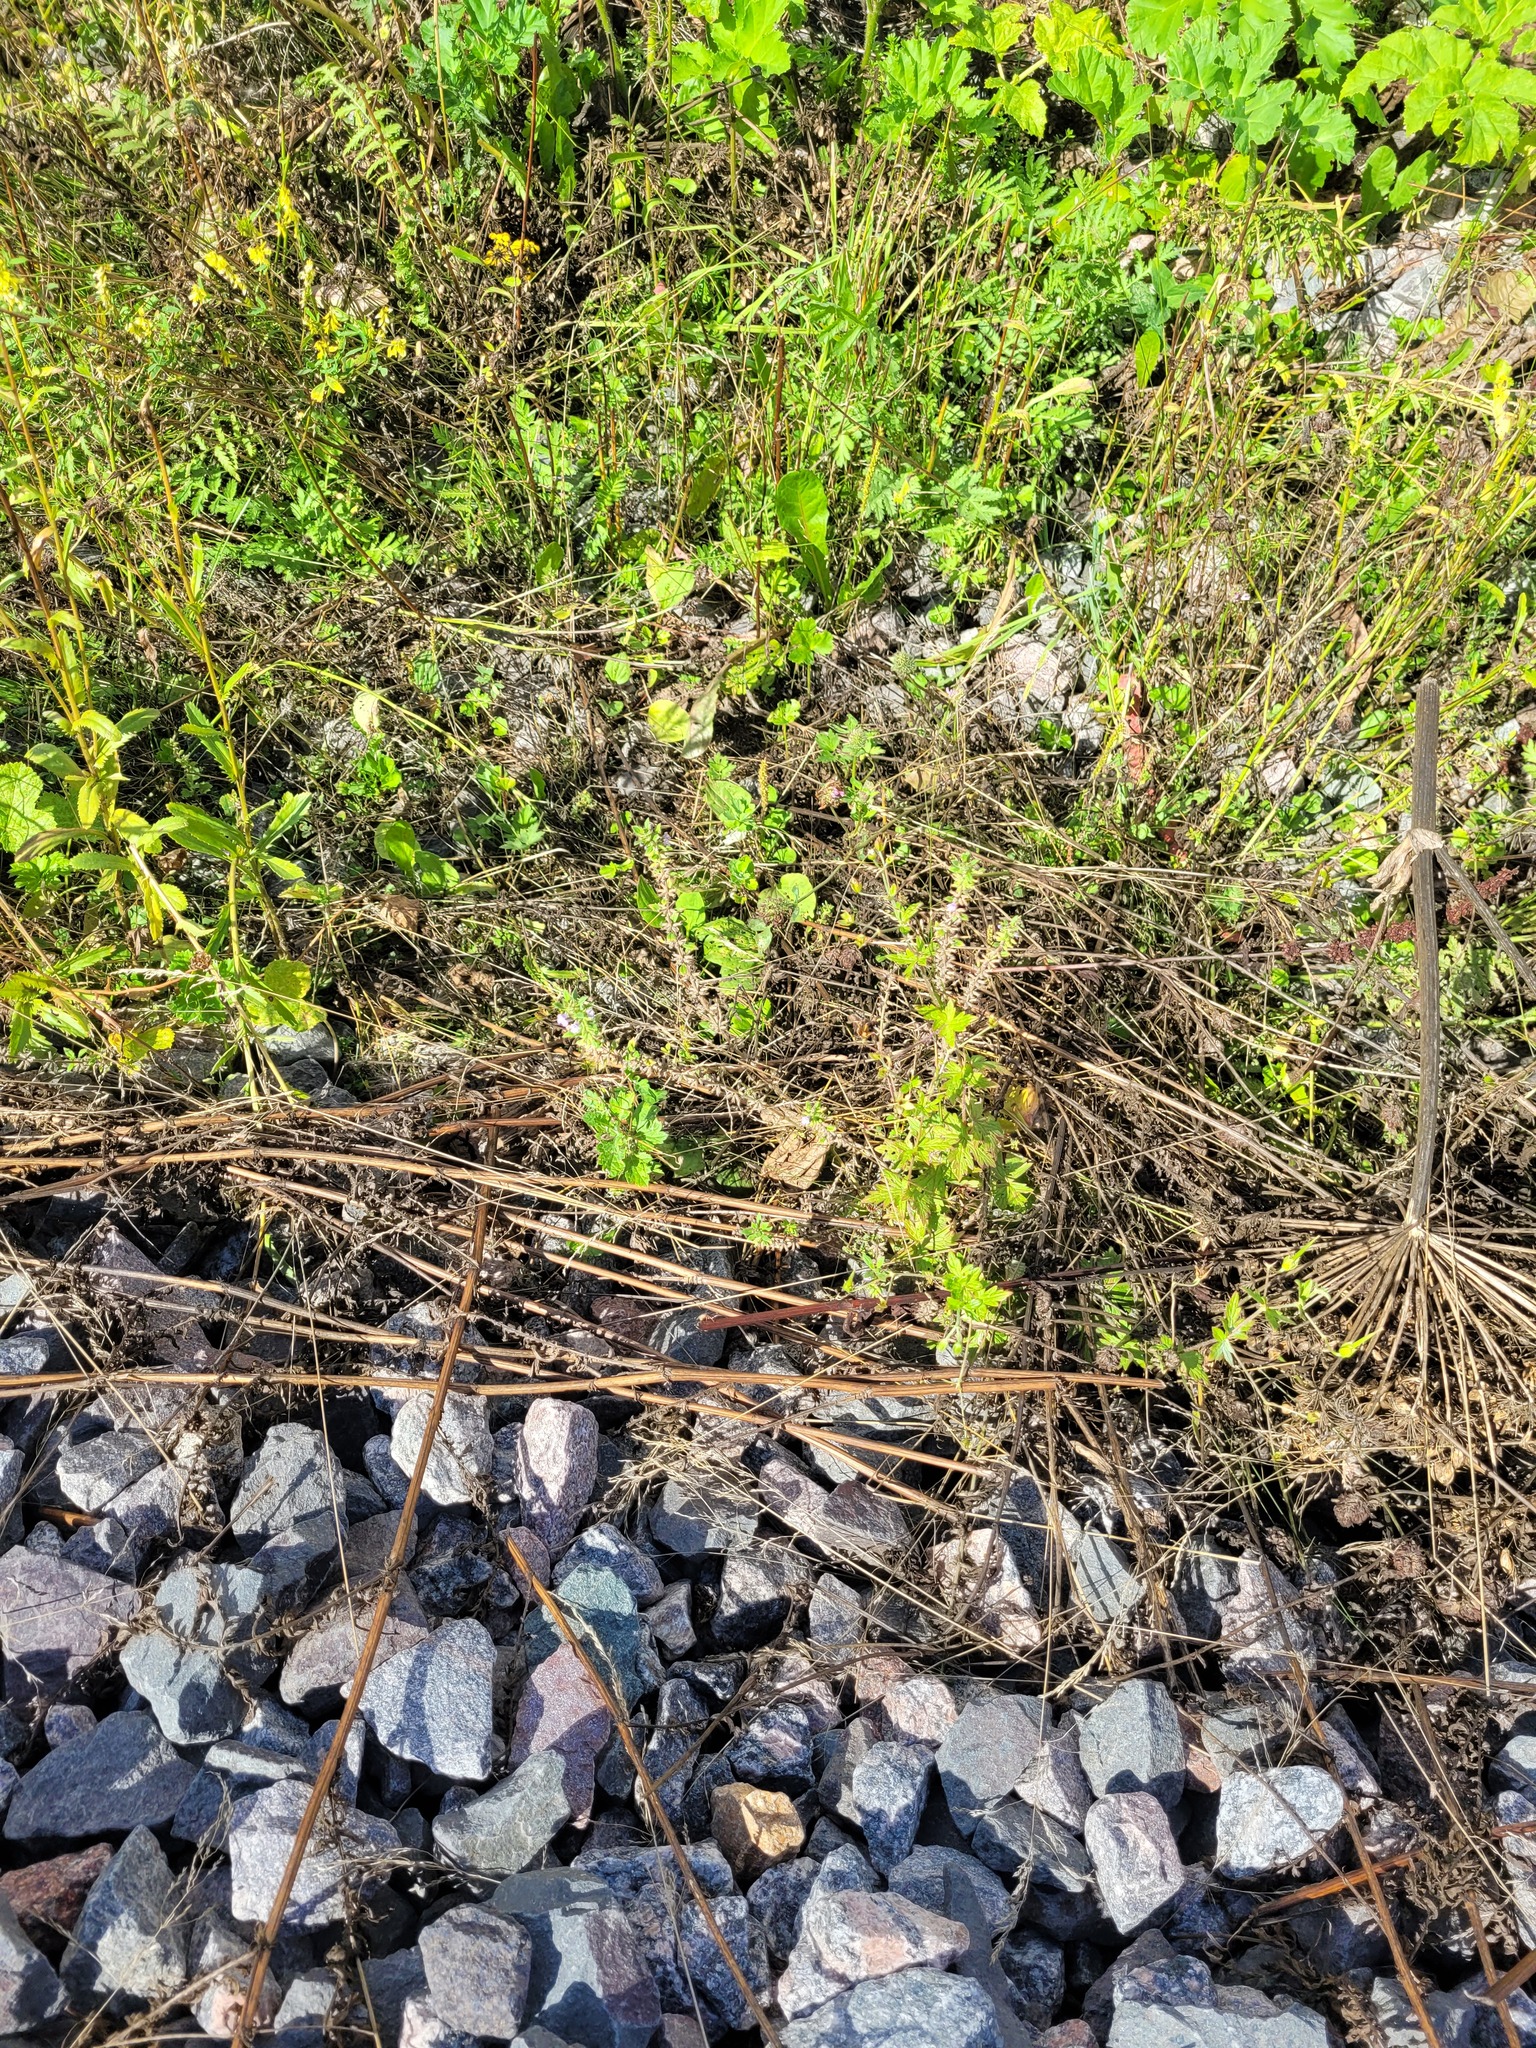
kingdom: Plantae
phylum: Tracheophyta
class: Magnoliopsida
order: Lamiales
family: Lamiaceae
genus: Clinopodium
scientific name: Clinopodium acinos
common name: Basil thyme
